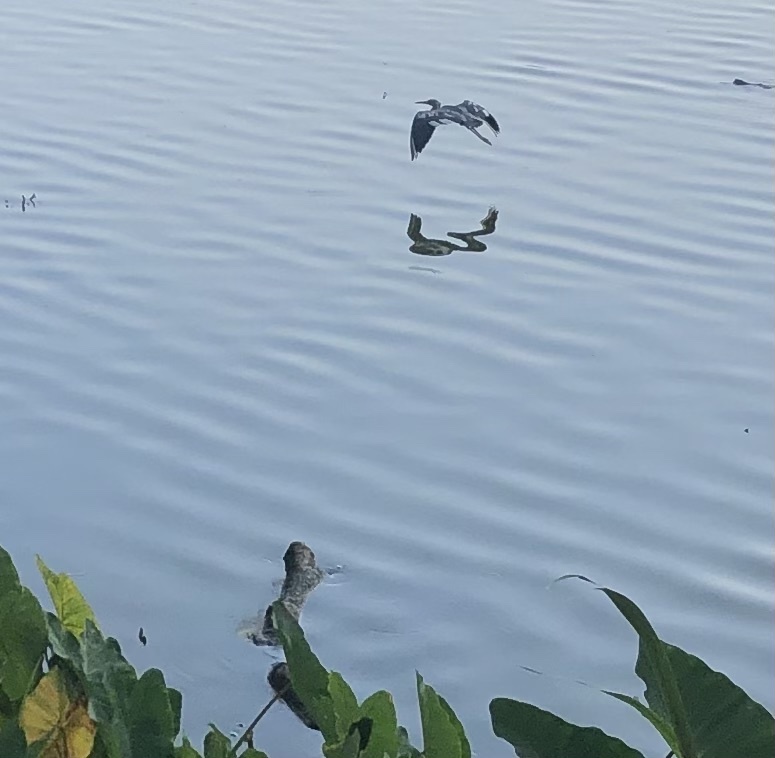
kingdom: Animalia
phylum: Chordata
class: Aves
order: Pelecaniformes
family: Ardeidae
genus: Egretta
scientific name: Egretta caerulea
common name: Little blue heron
